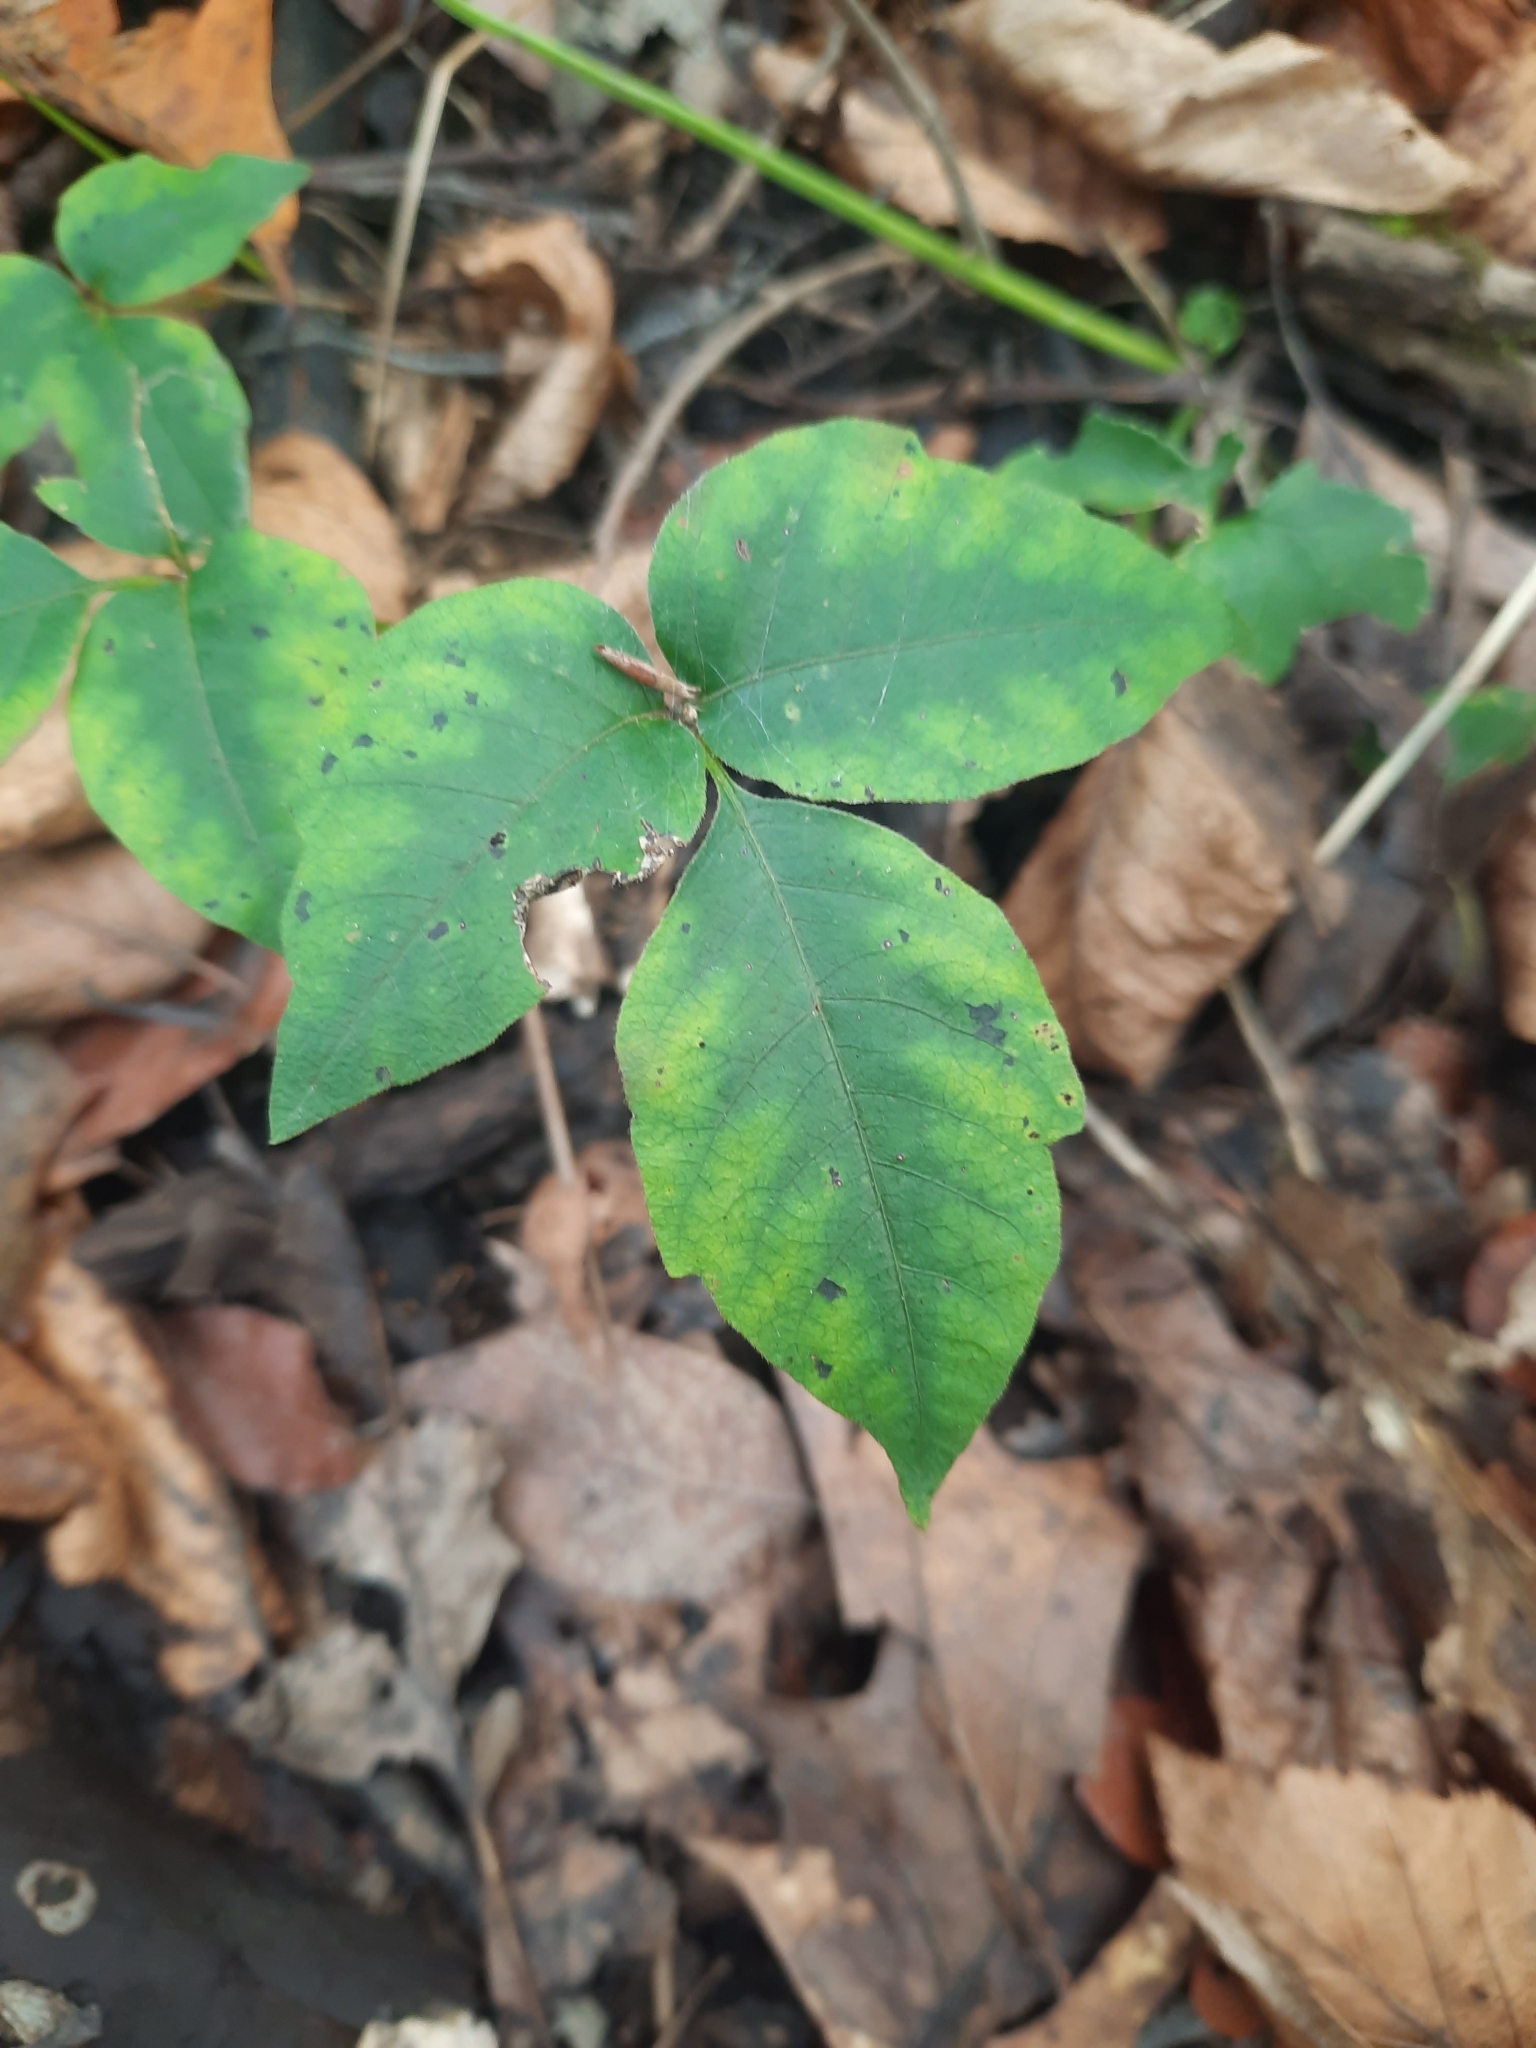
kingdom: Plantae
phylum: Tracheophyta
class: Magnoliopsida
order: Sapindales
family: Anacardiaceae
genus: Toxicodendron
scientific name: Toxicodendron radicans
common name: Poison ivy
